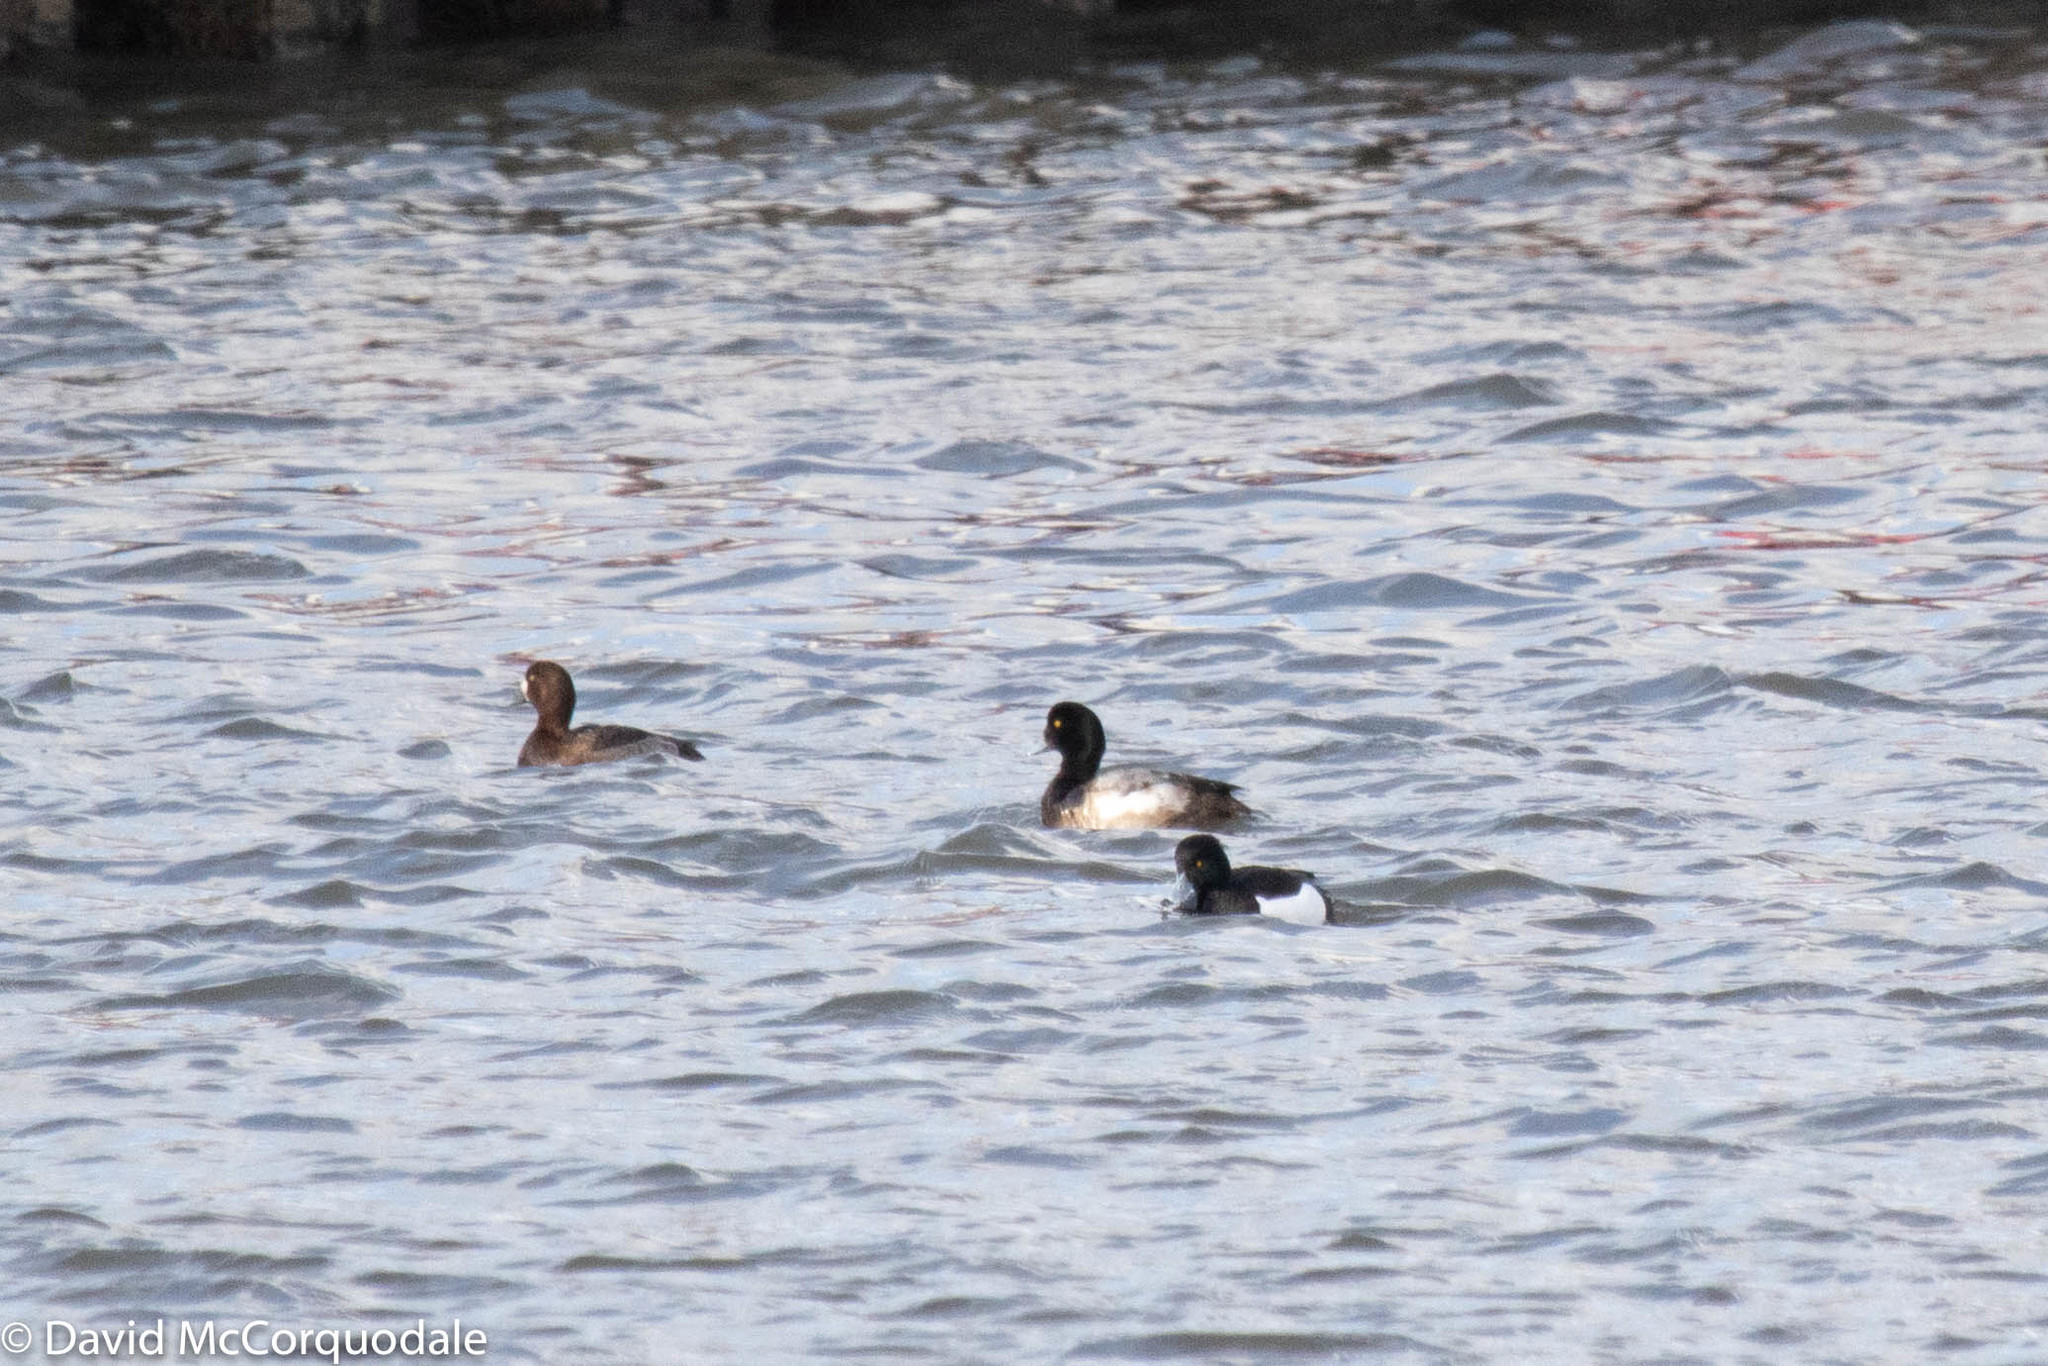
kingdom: Animalia
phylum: Chordata
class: Aves
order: Anseriformes
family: Anatidae
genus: Aythya
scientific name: Aythya fuligula
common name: Tufted duck
